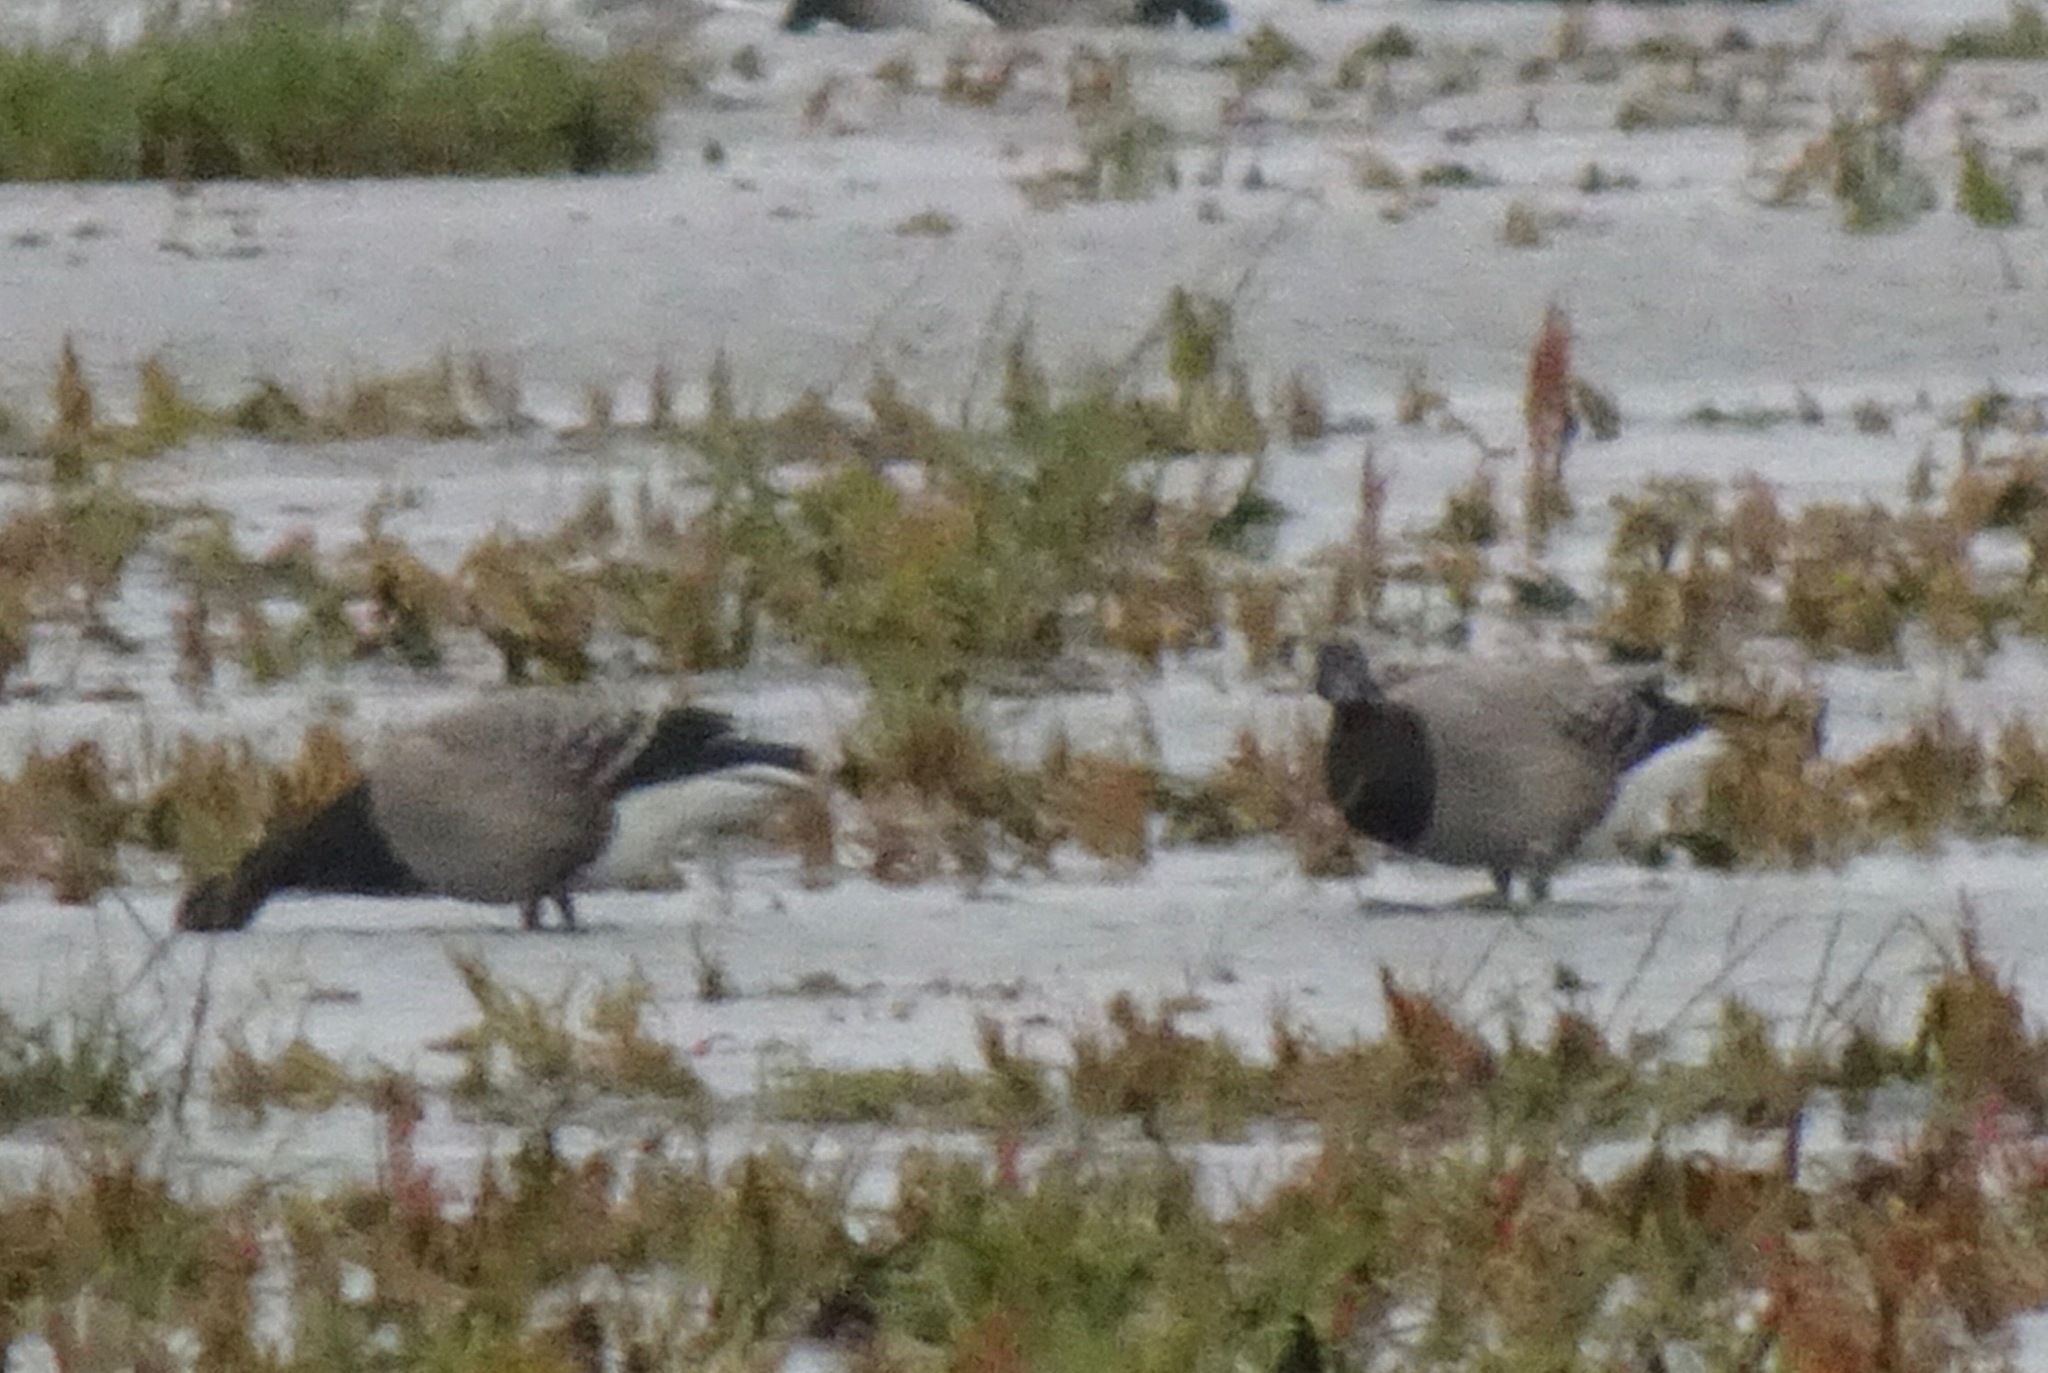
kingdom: Animalia
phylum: Chordata
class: Aves
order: Anseriformes
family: Anatidae
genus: Branta
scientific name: Branta bernicla
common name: Brant goose
